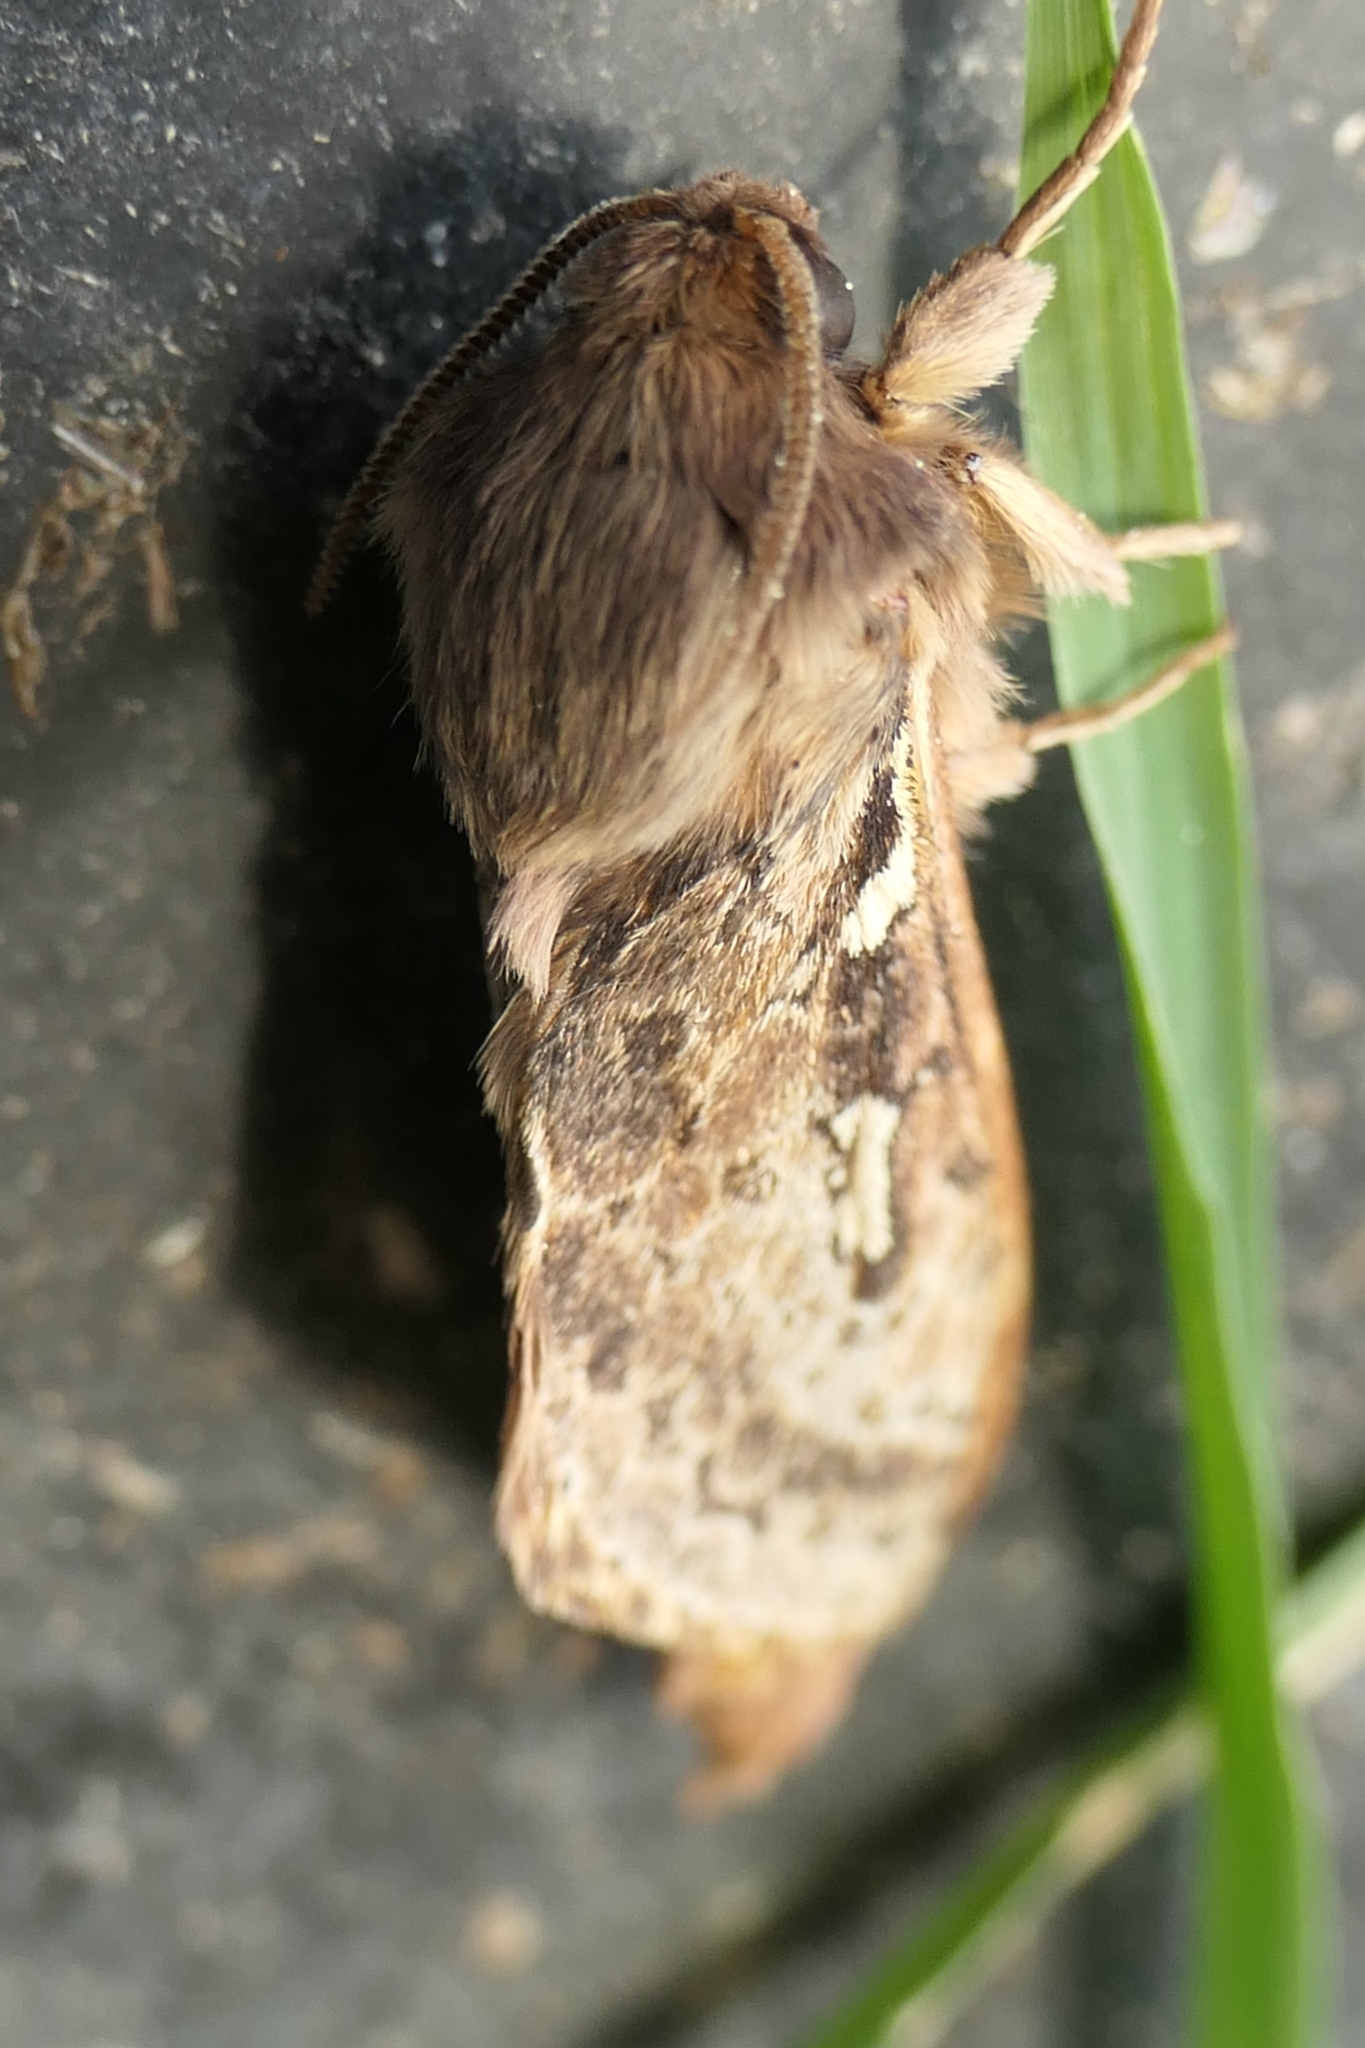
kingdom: Animalia
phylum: Arthropoda
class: Insecta
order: Lepidoptera
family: Hepialidae
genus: Wiseana
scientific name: Wiseana cervinata
